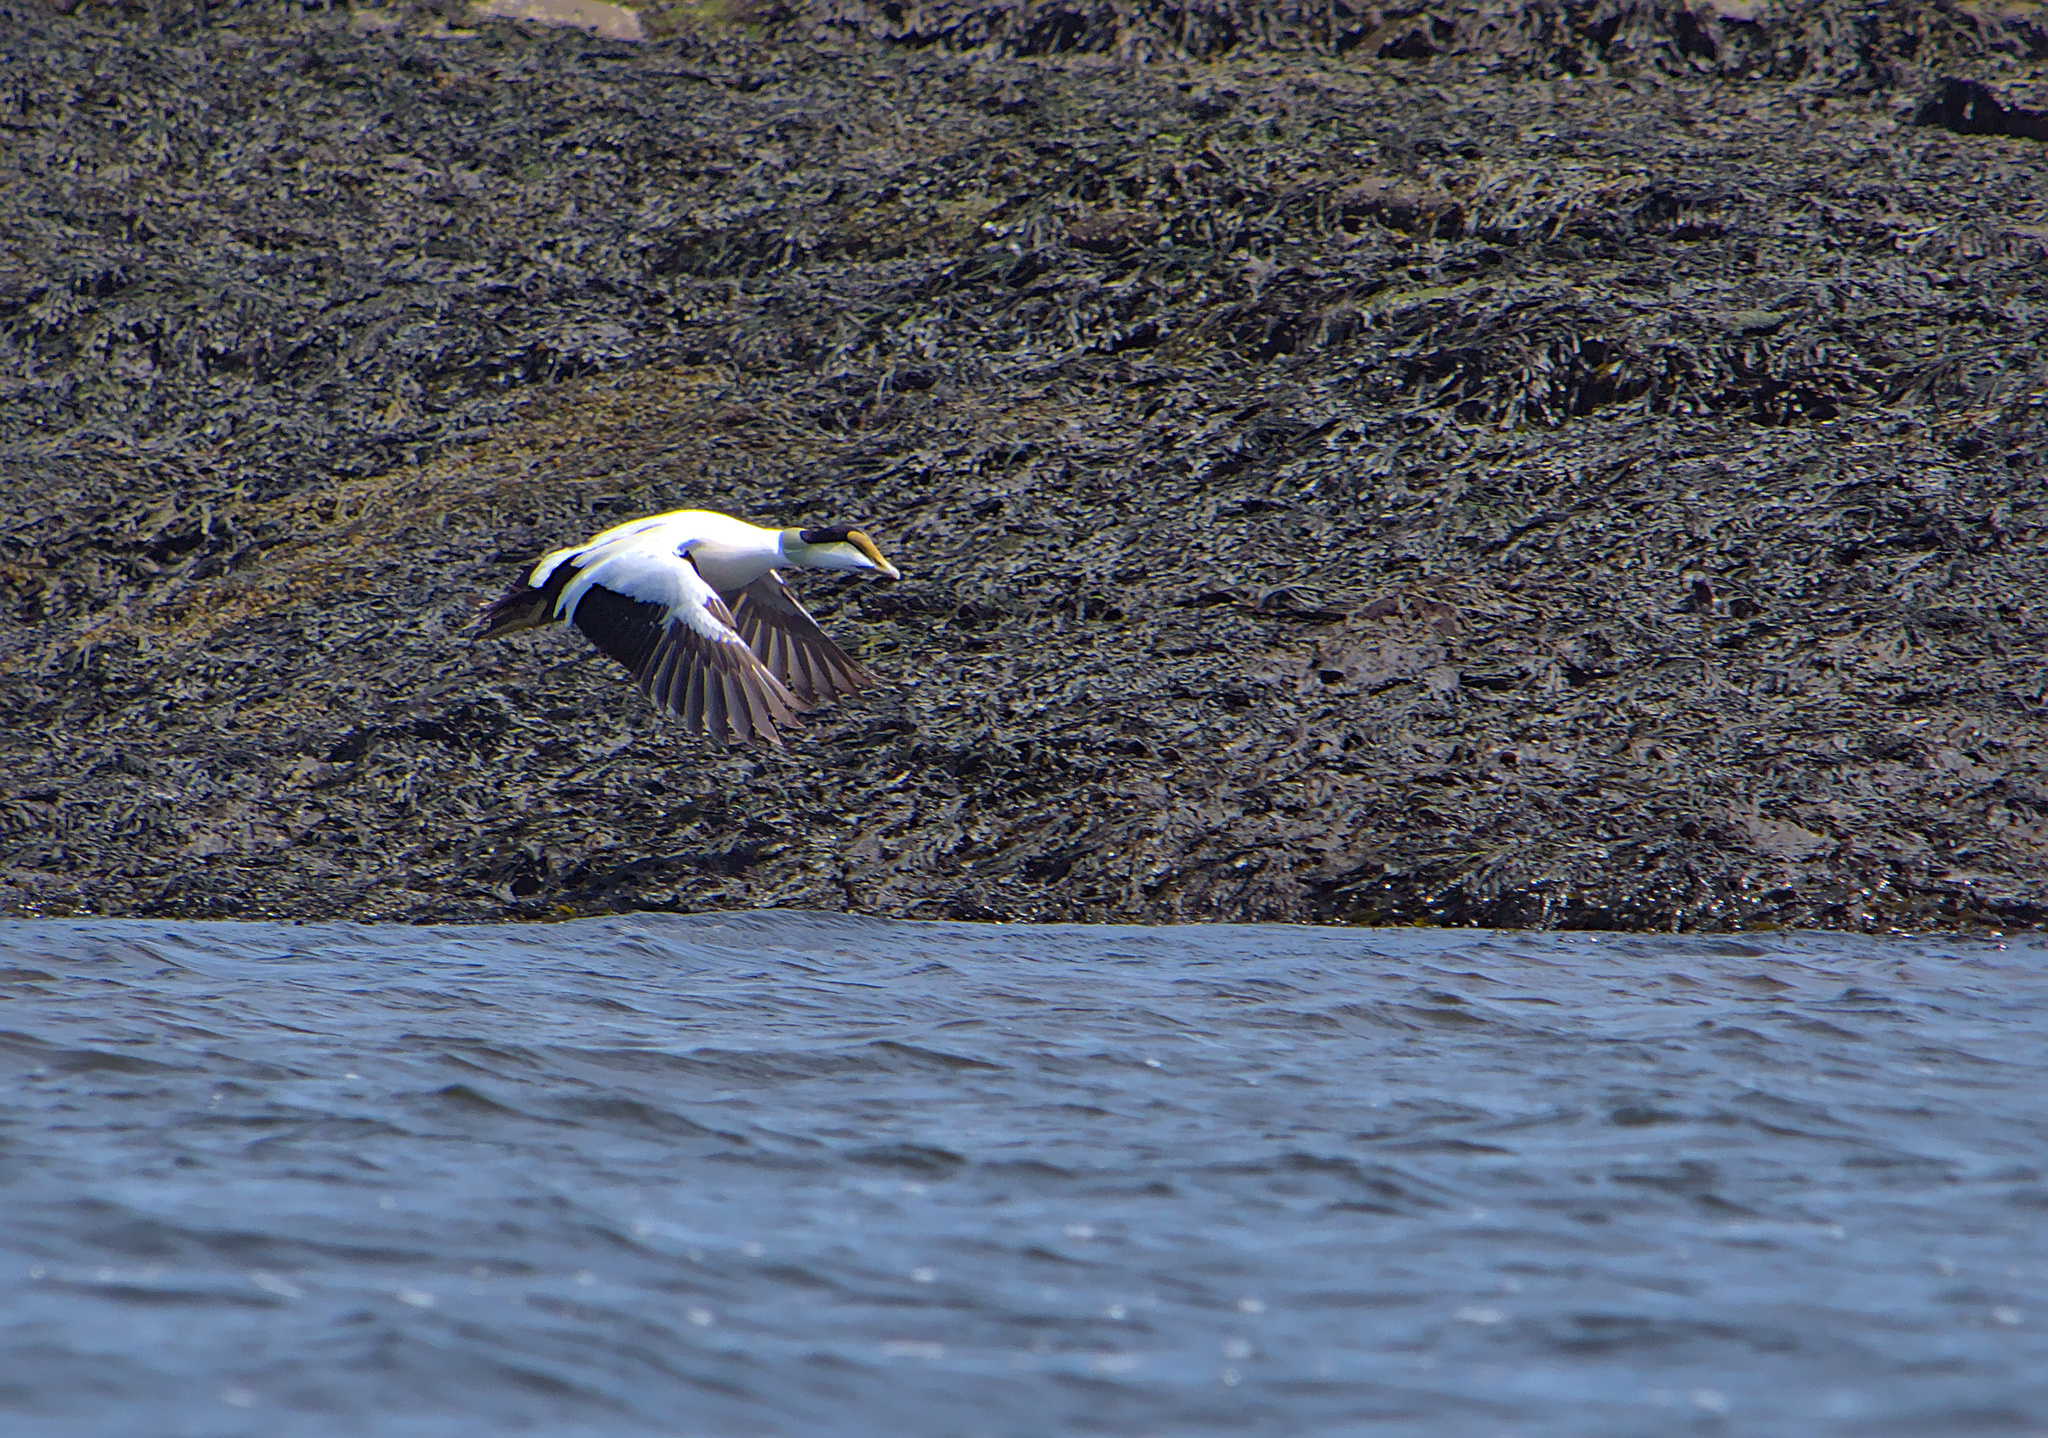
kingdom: Animalia
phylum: Chordata
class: Aves
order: Anseriformes
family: Anatidae
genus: Somateria
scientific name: Somateria mollissima
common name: Common eider
